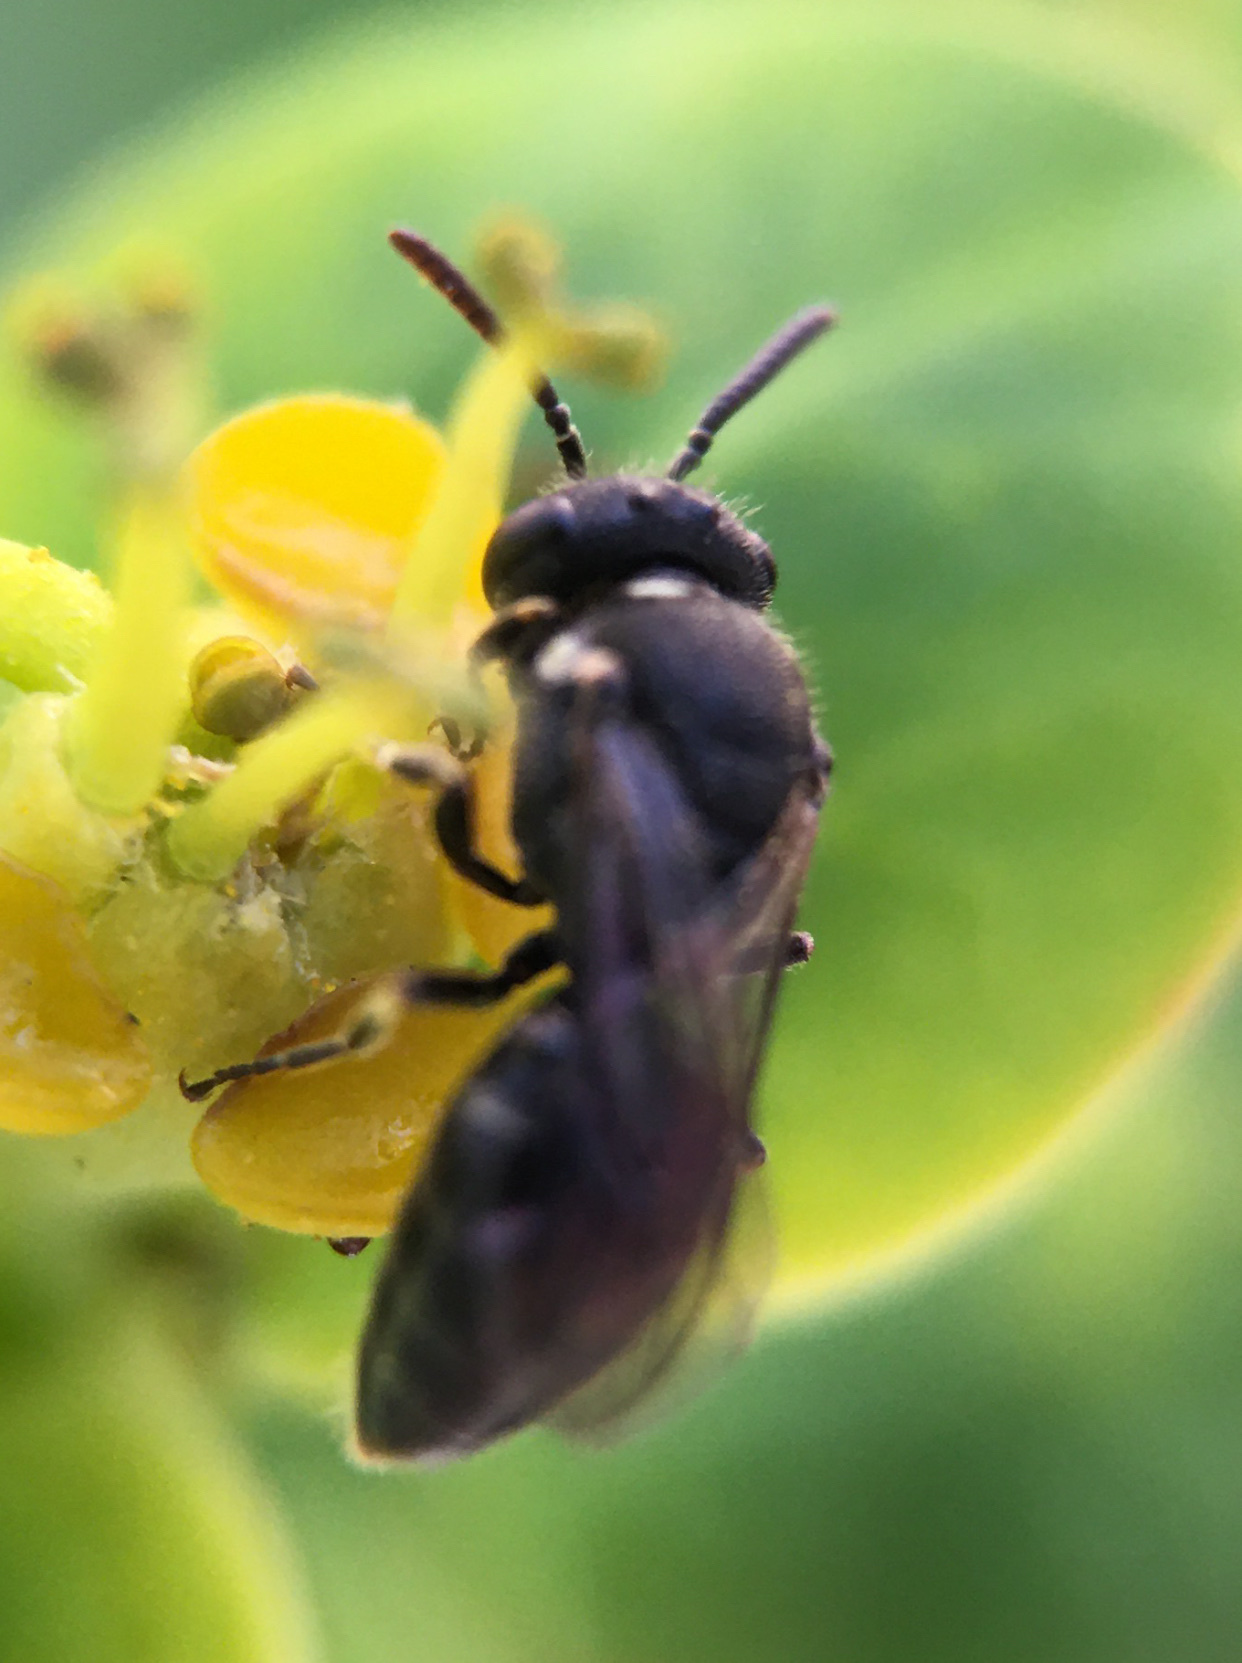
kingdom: Animalia
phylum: Arthropoda
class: Insecta
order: Hymenoptera
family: Colletidae
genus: Hylaeus
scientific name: Hylaeus
